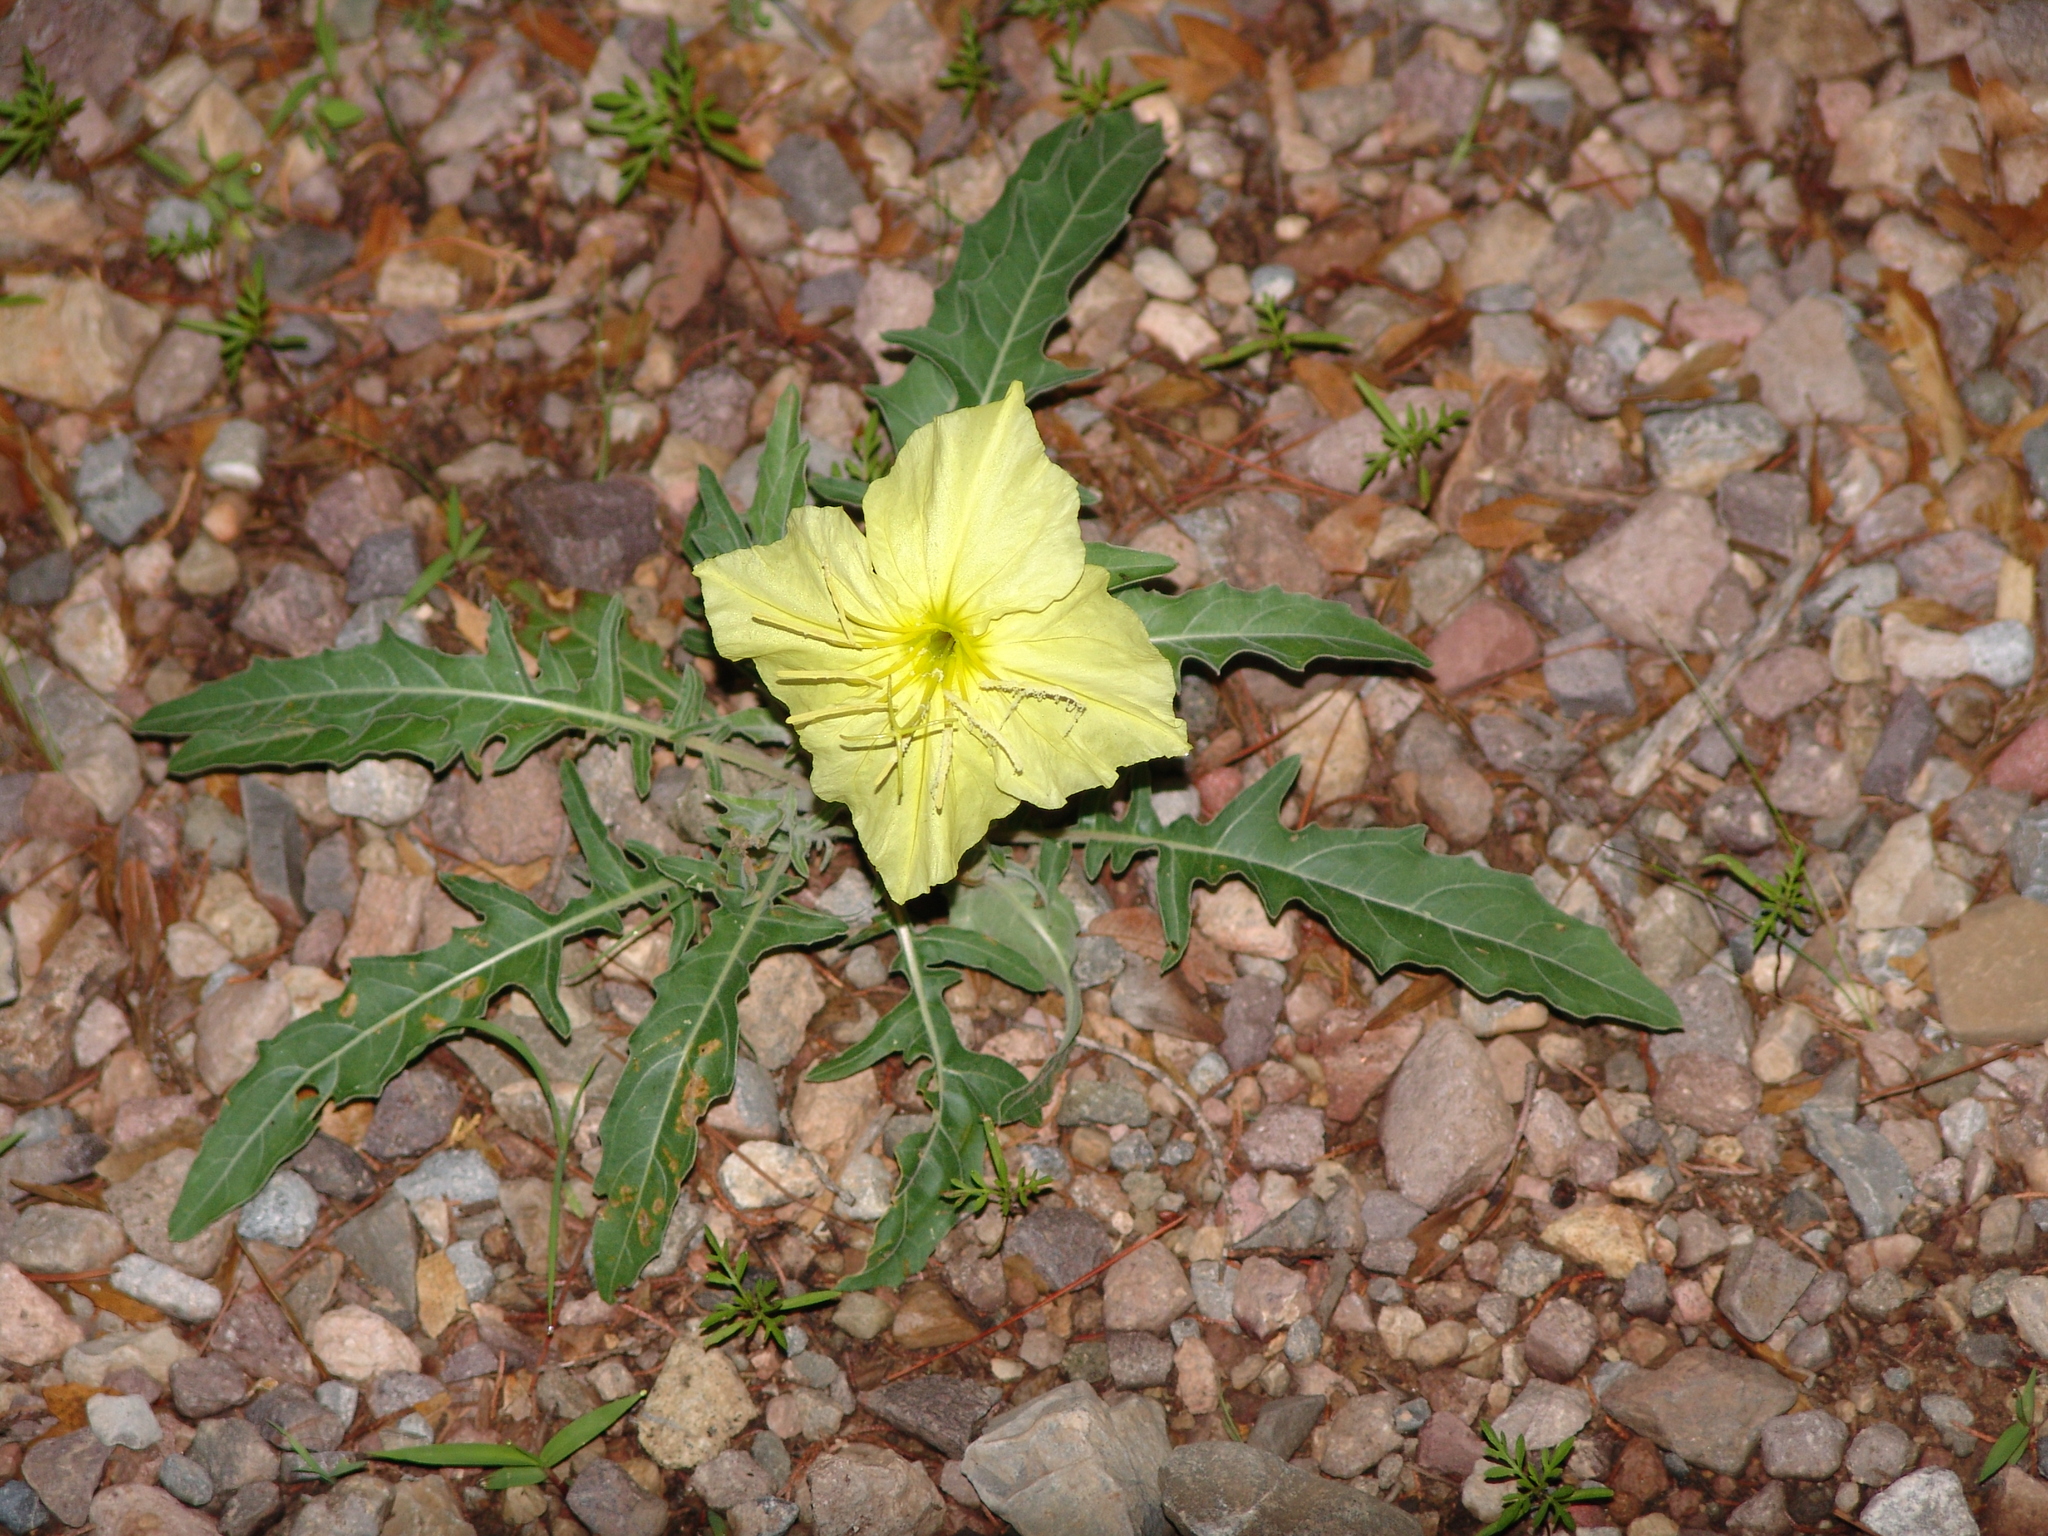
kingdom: Plantae
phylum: Tracheophyta
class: Magnoliopsida
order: Myrtales
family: Onagraceae
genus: Oenothera
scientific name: Oenothera brachycarpa
